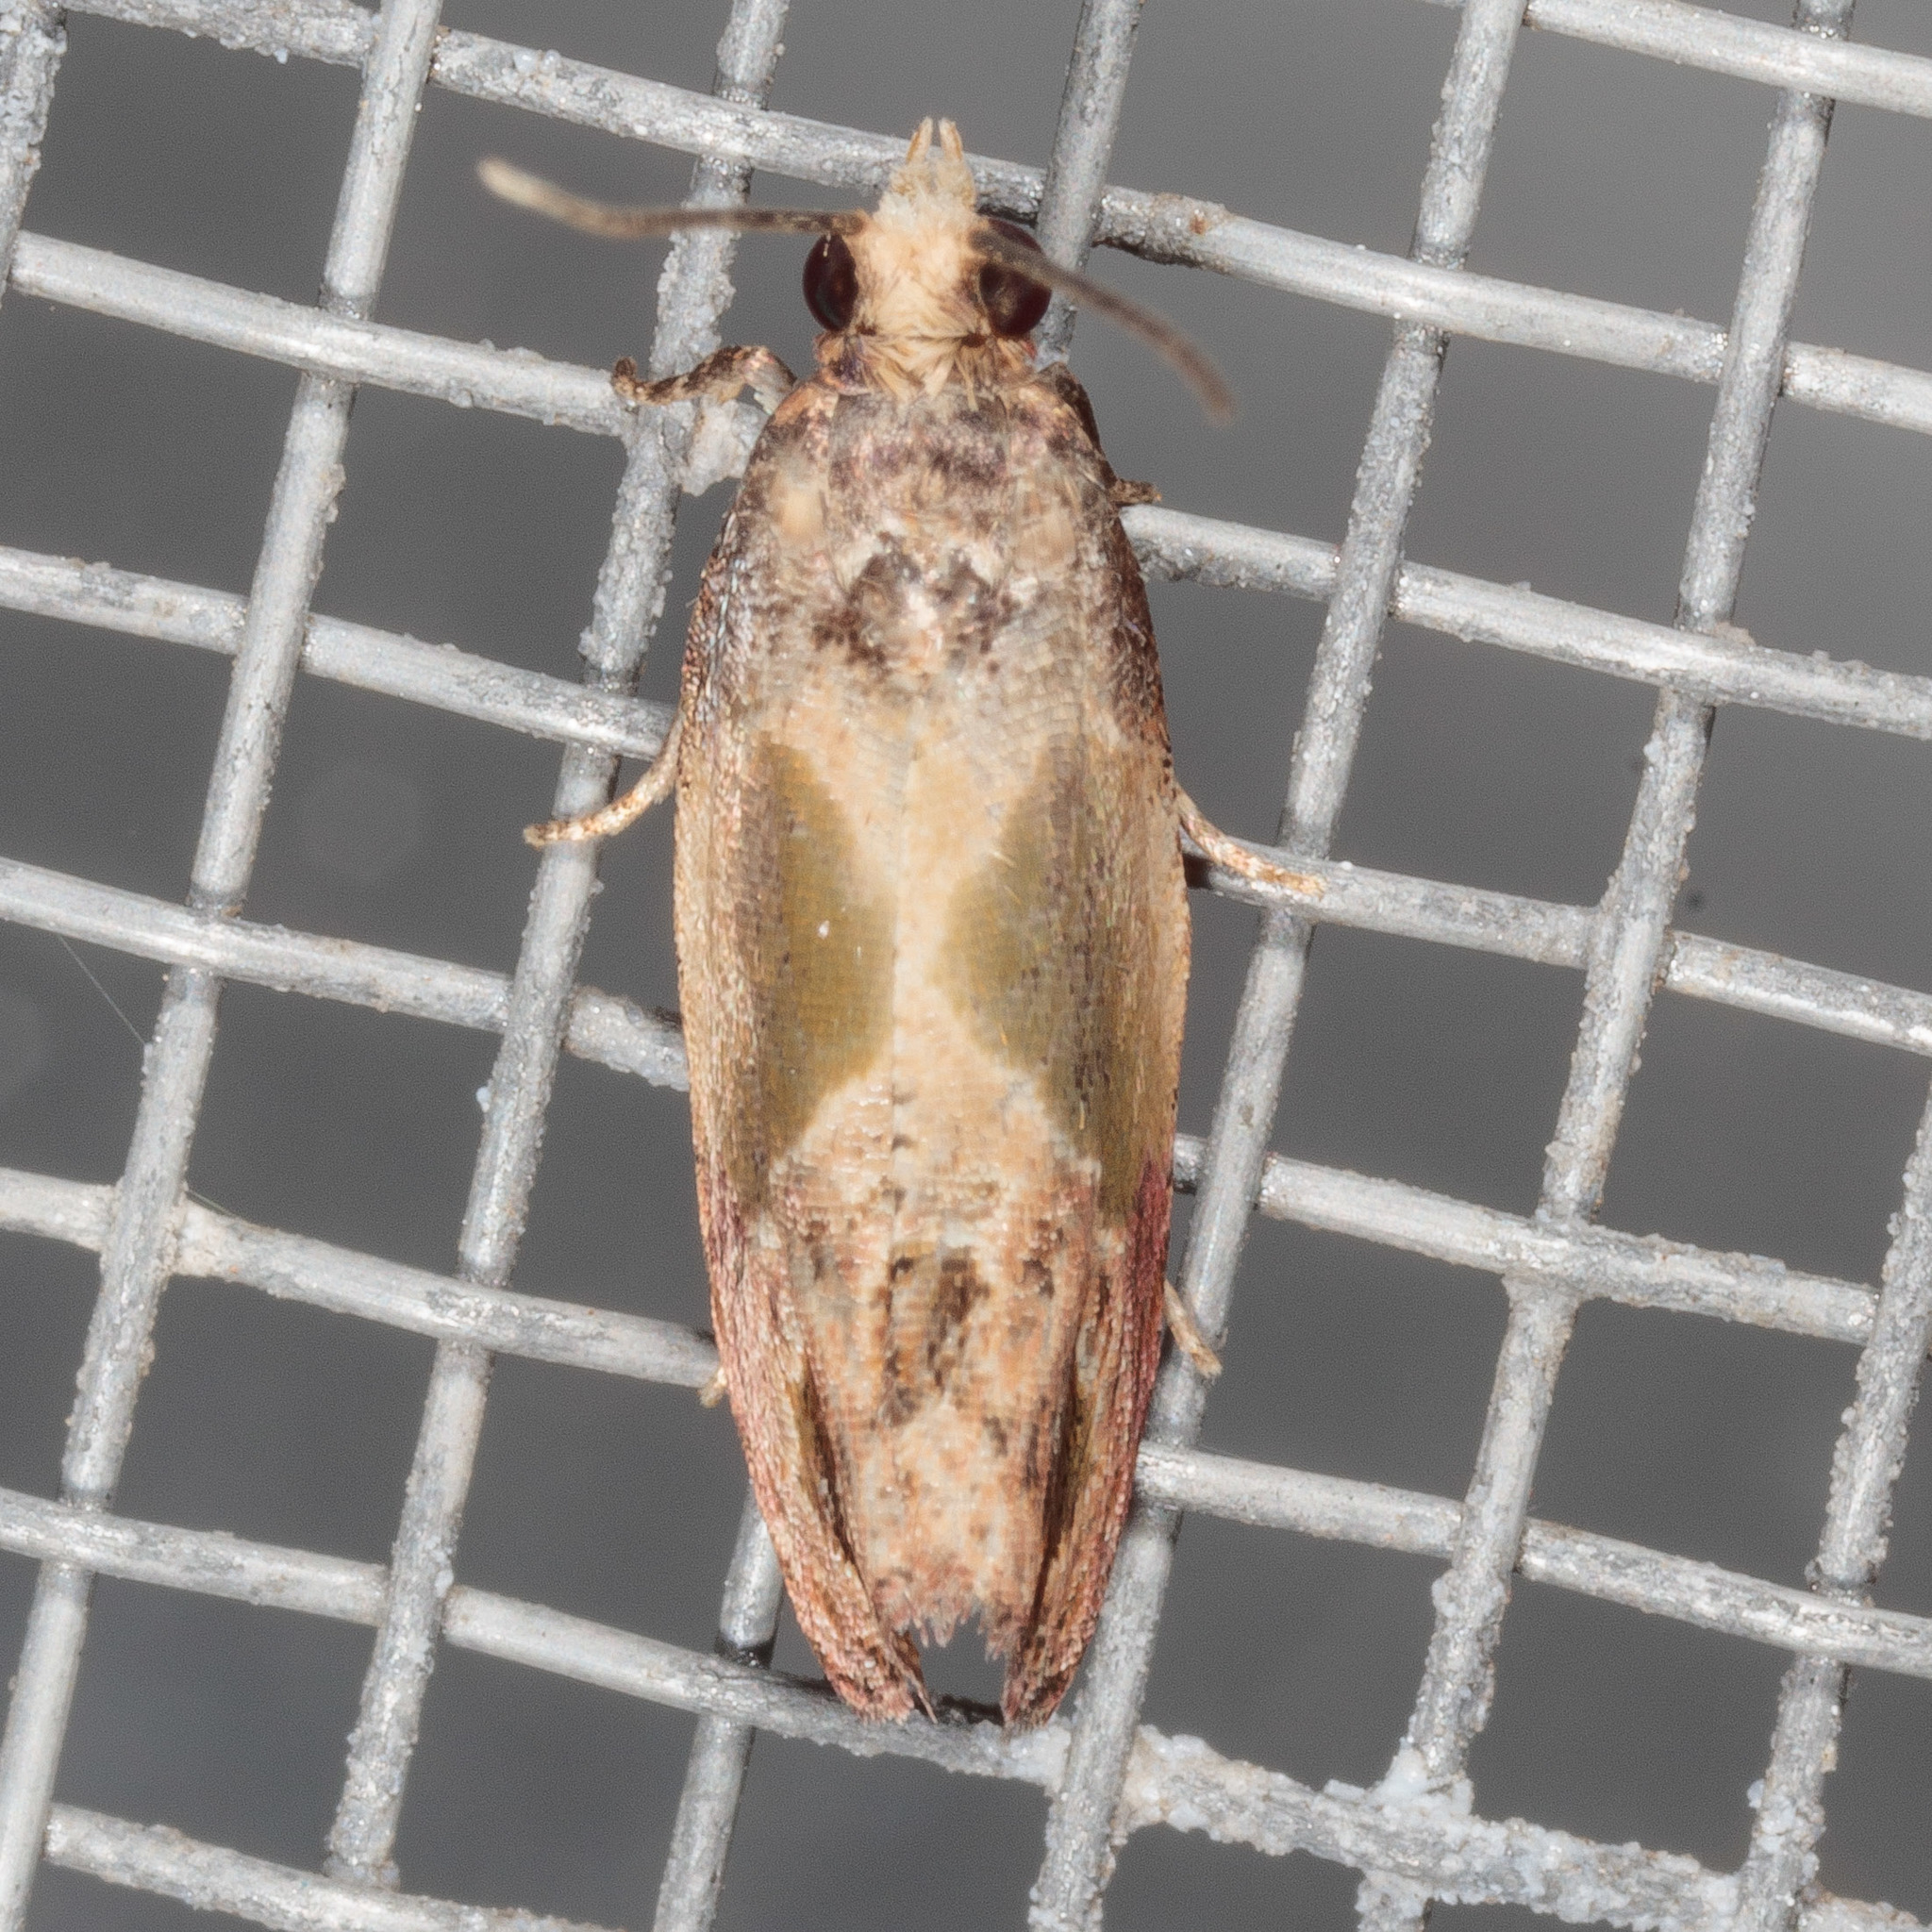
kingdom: Animalia
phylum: Arthropoda
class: Insecta
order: Lepidoptera
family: Tortricidae
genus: Eumarozia
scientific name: Eumarozia malachitana
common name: Sculptured moth
